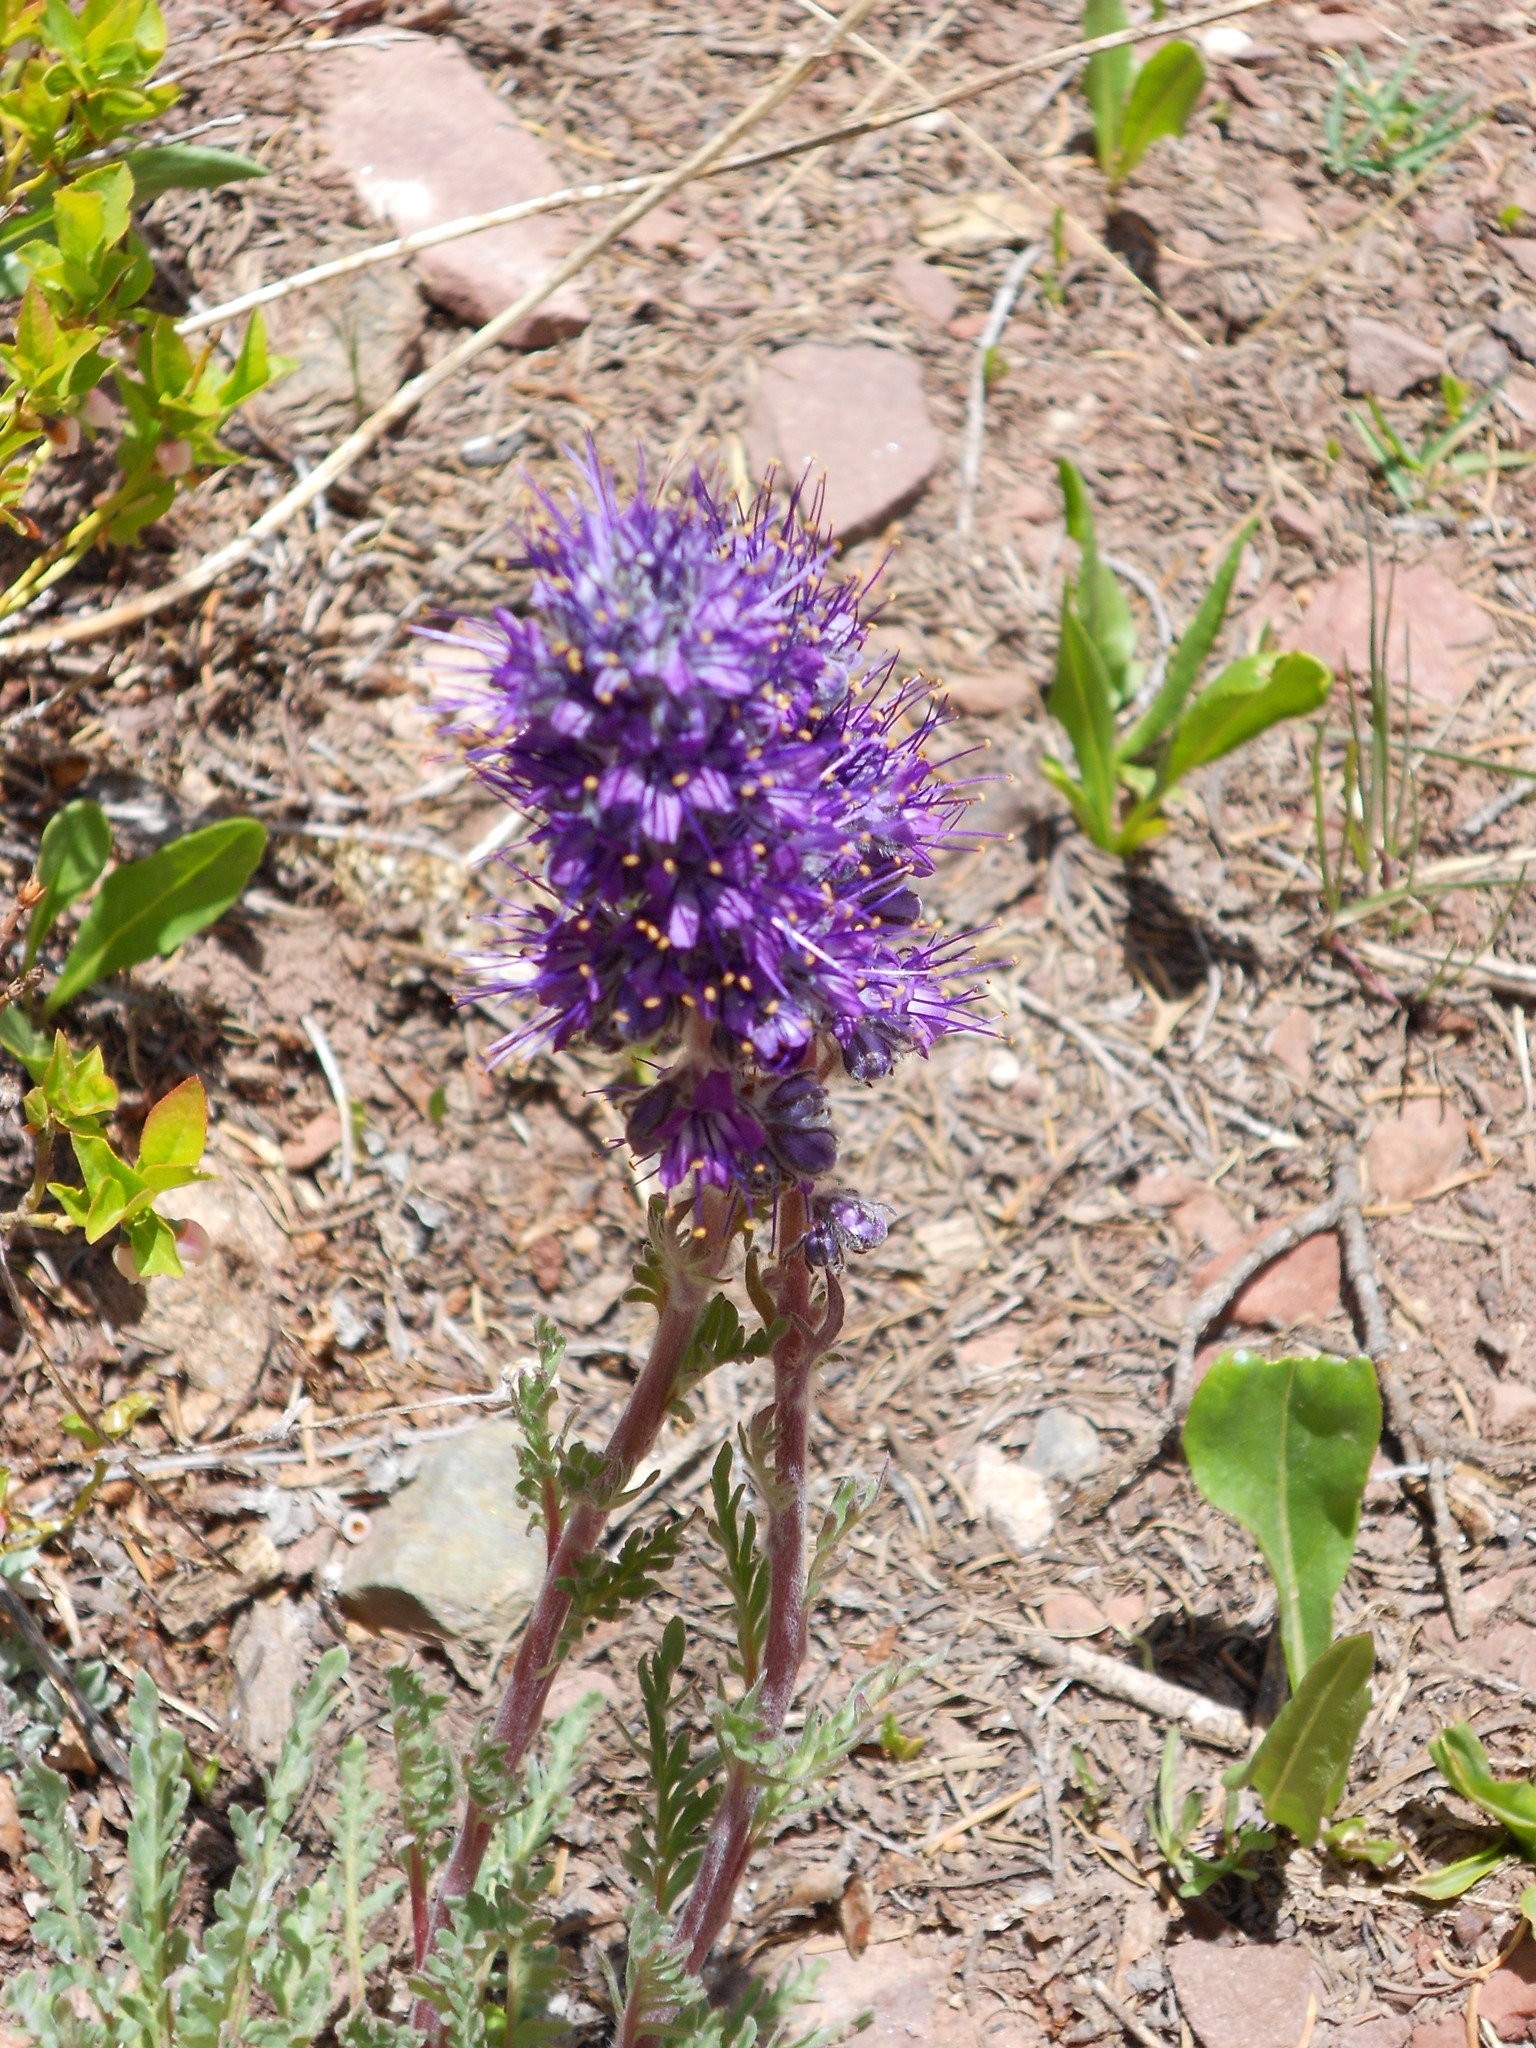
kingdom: Plantae
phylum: Tracheophyta
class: Magnoliopsida
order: Boraginales
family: Hydrophyllaceae
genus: Phacelia
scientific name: Phacelia sericea
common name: Silky phacelia
